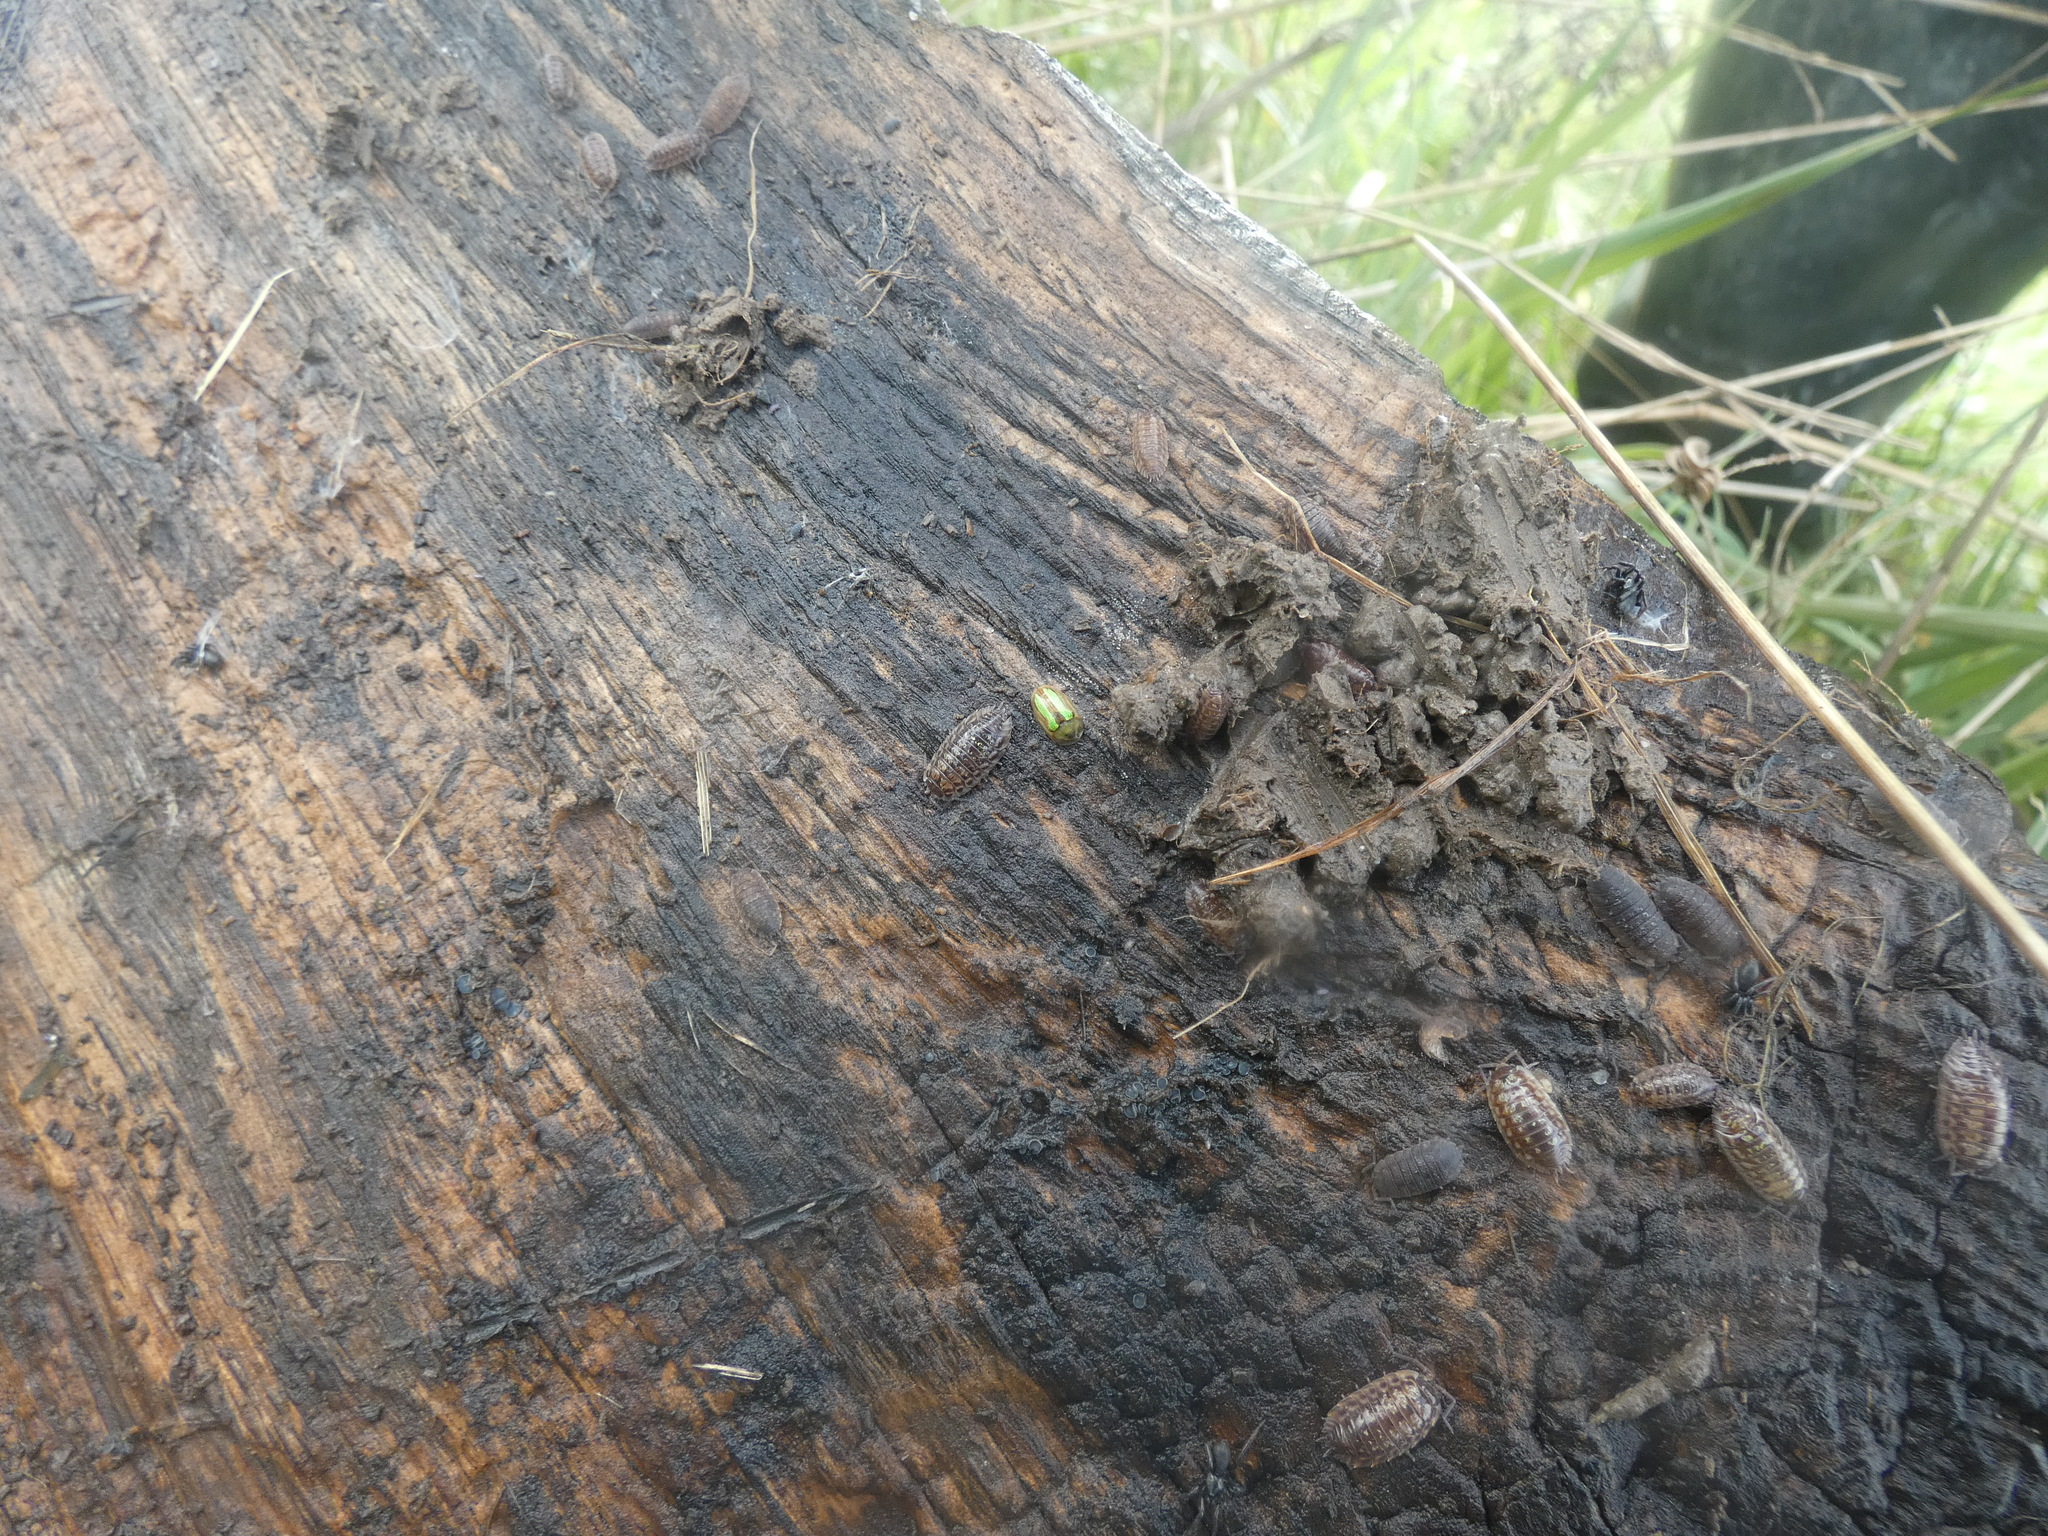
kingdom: Animalia
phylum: Arthropoda
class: Malacostraca
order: Isopoda
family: Oniscidae
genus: Oniscus
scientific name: Oniscus asellus
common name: Common shiny woodlouse
